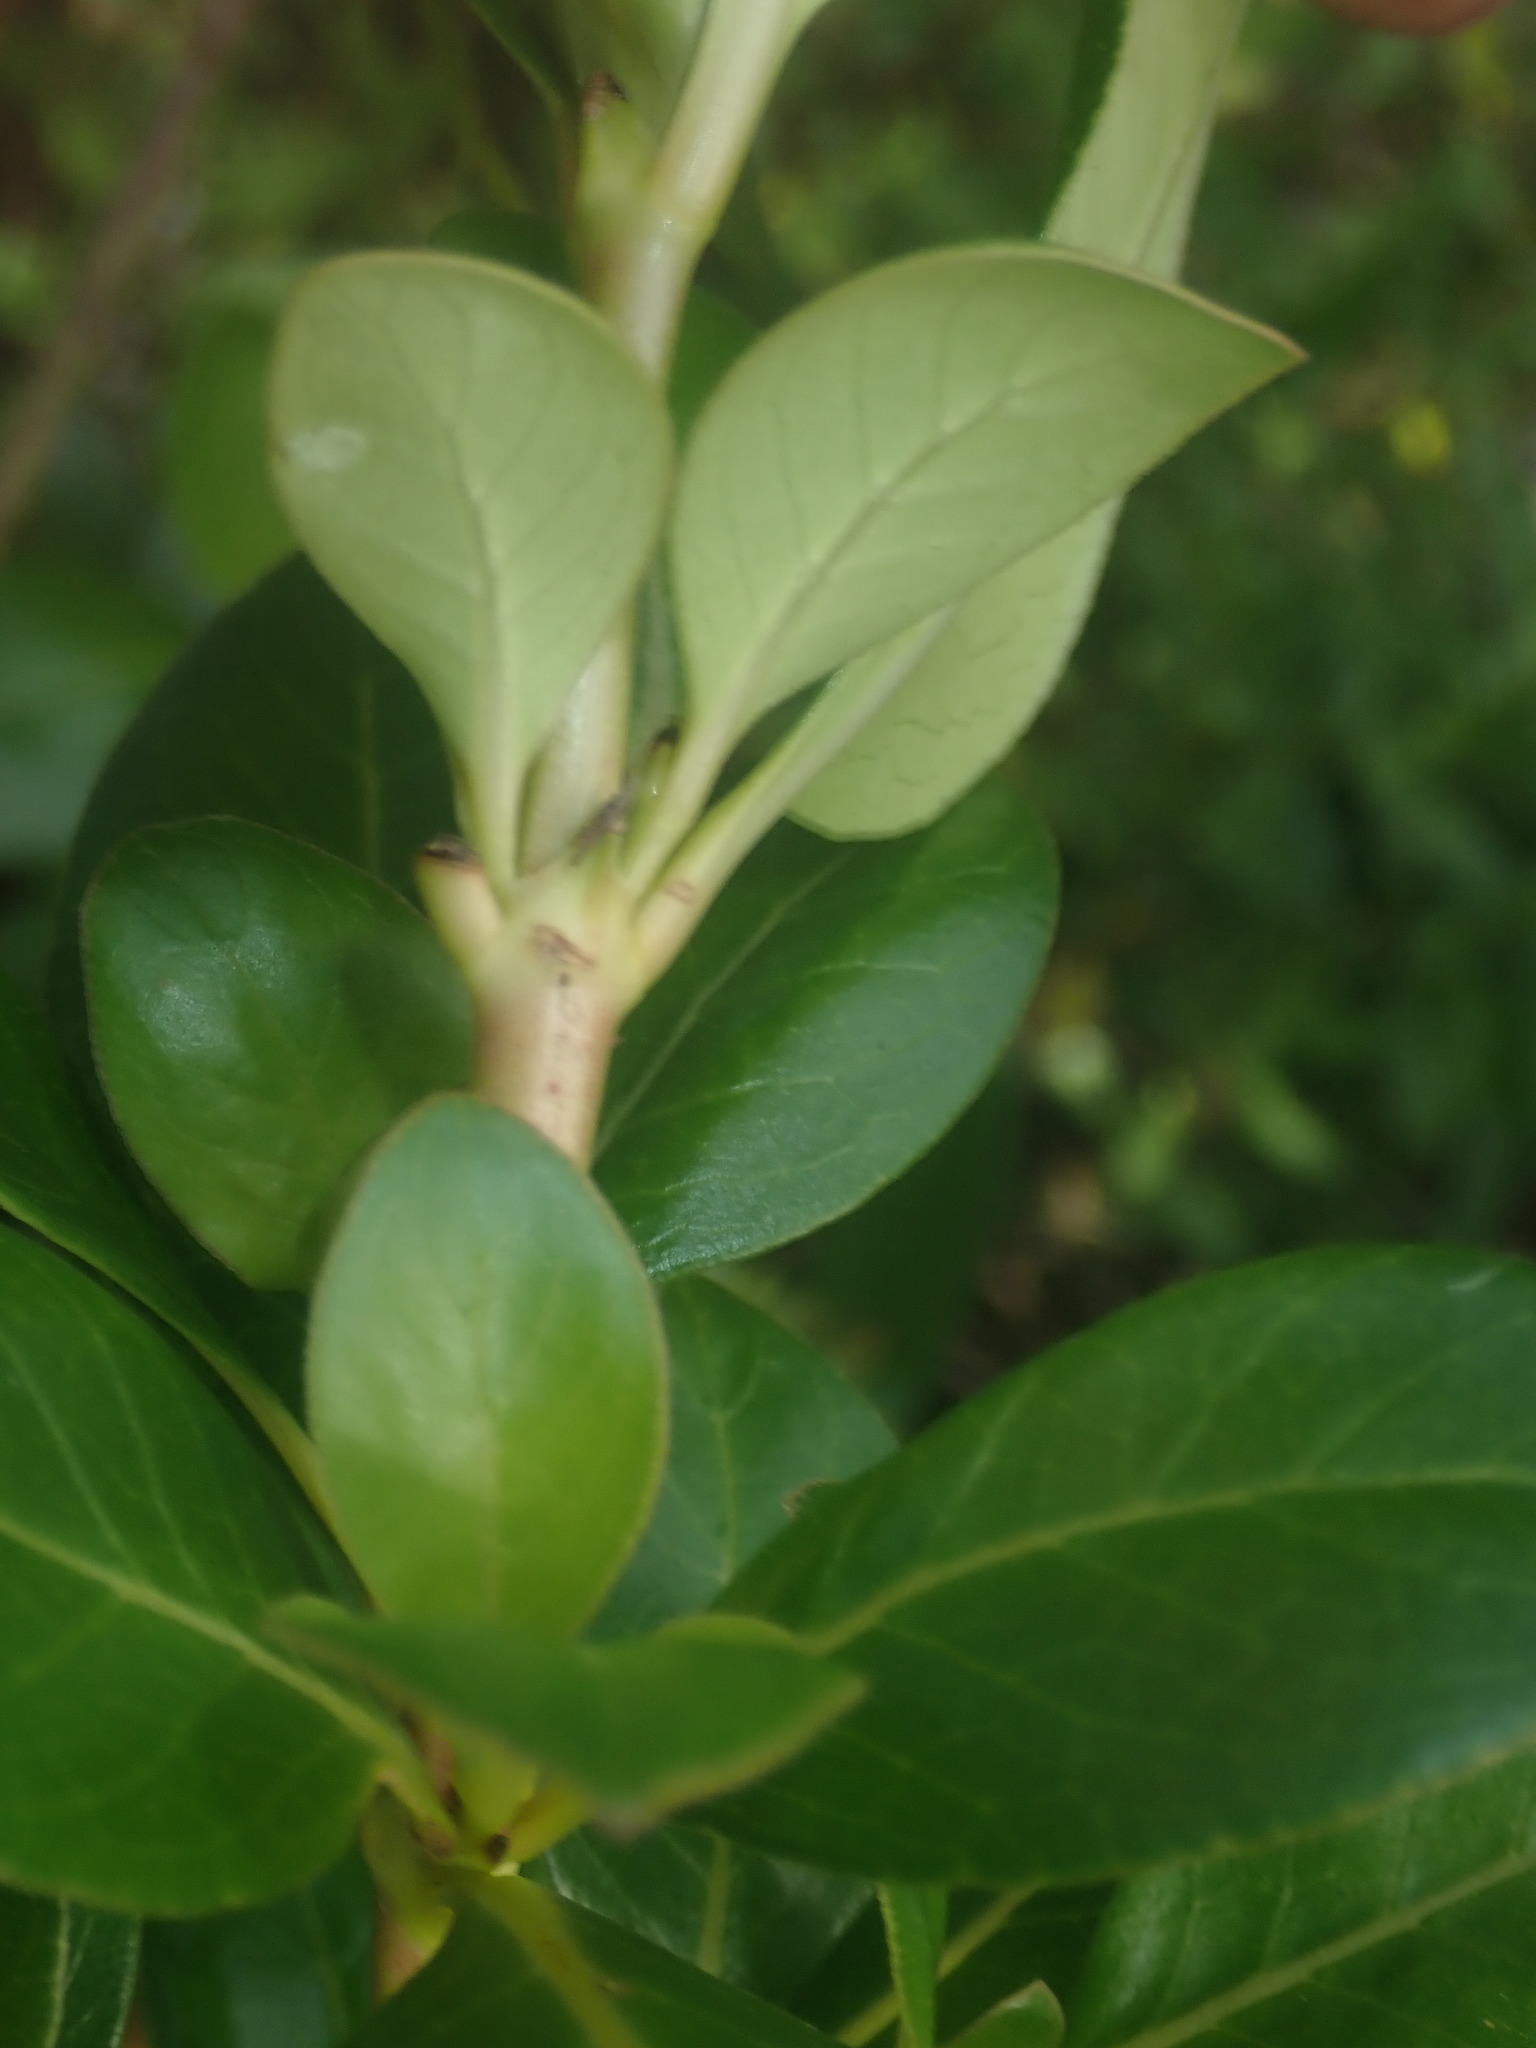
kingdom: Plantae
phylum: Tracheophyta
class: Magnoliopsida
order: Gentianales
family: Rubiaceae
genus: Coprosma
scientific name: Coprosma robusta
